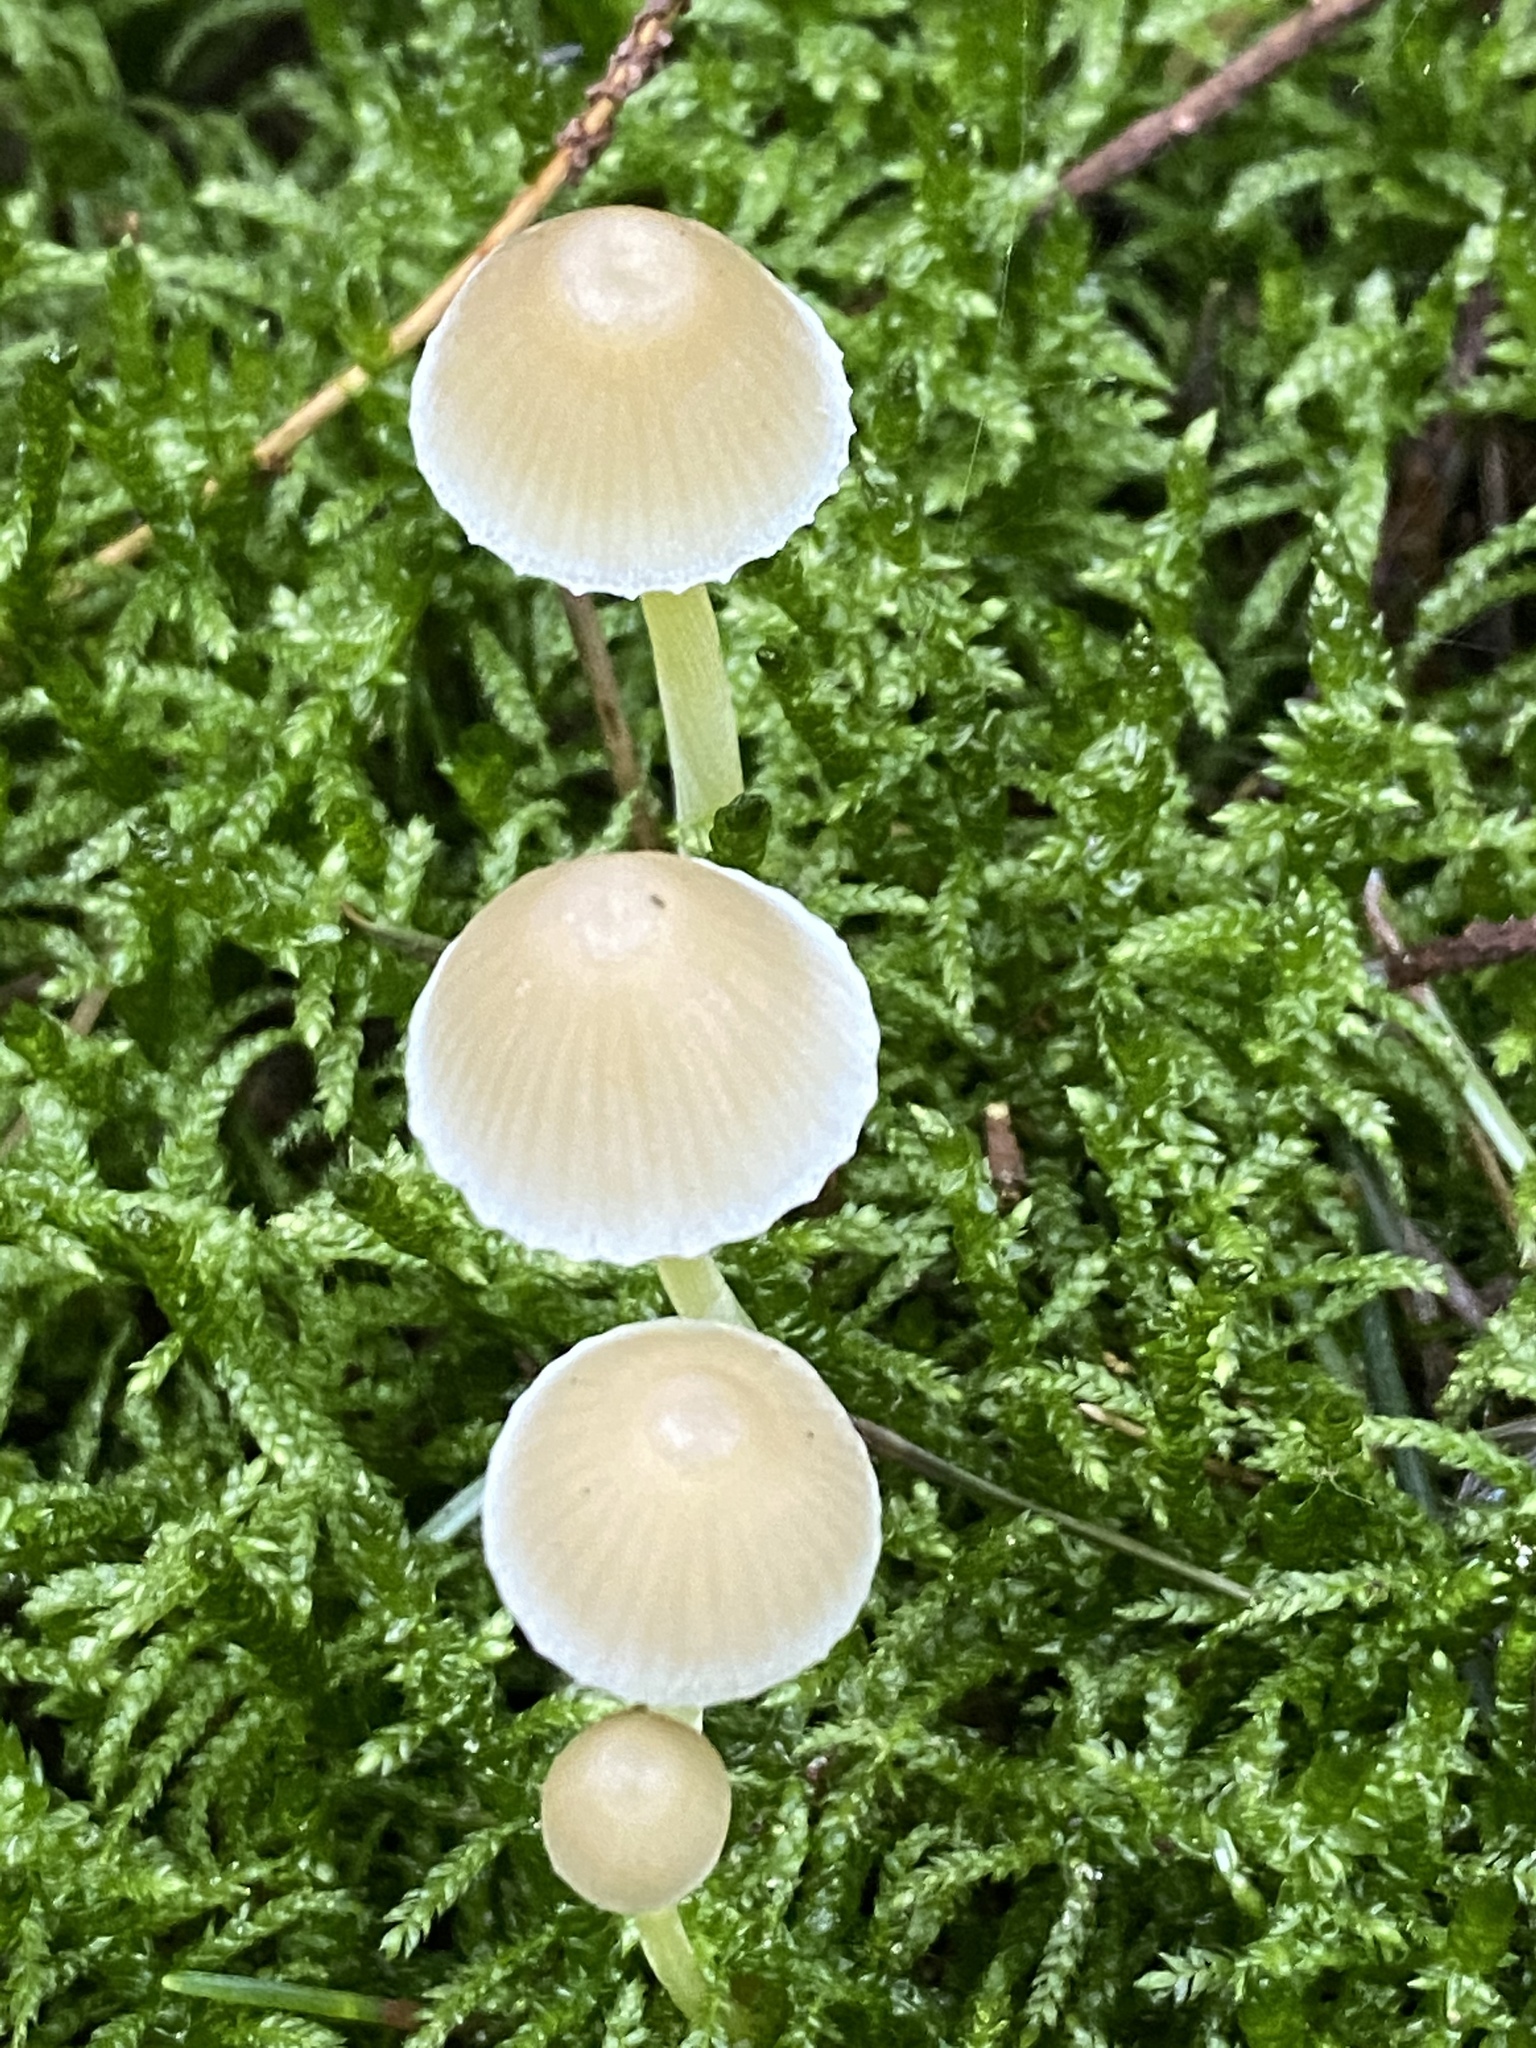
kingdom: Fungi
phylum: Basidiomycota
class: Agaricomycetes
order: Agaricales
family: Mycenaceae
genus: Mycena
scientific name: Mycena epipterygia
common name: Yellowleg bonnet
